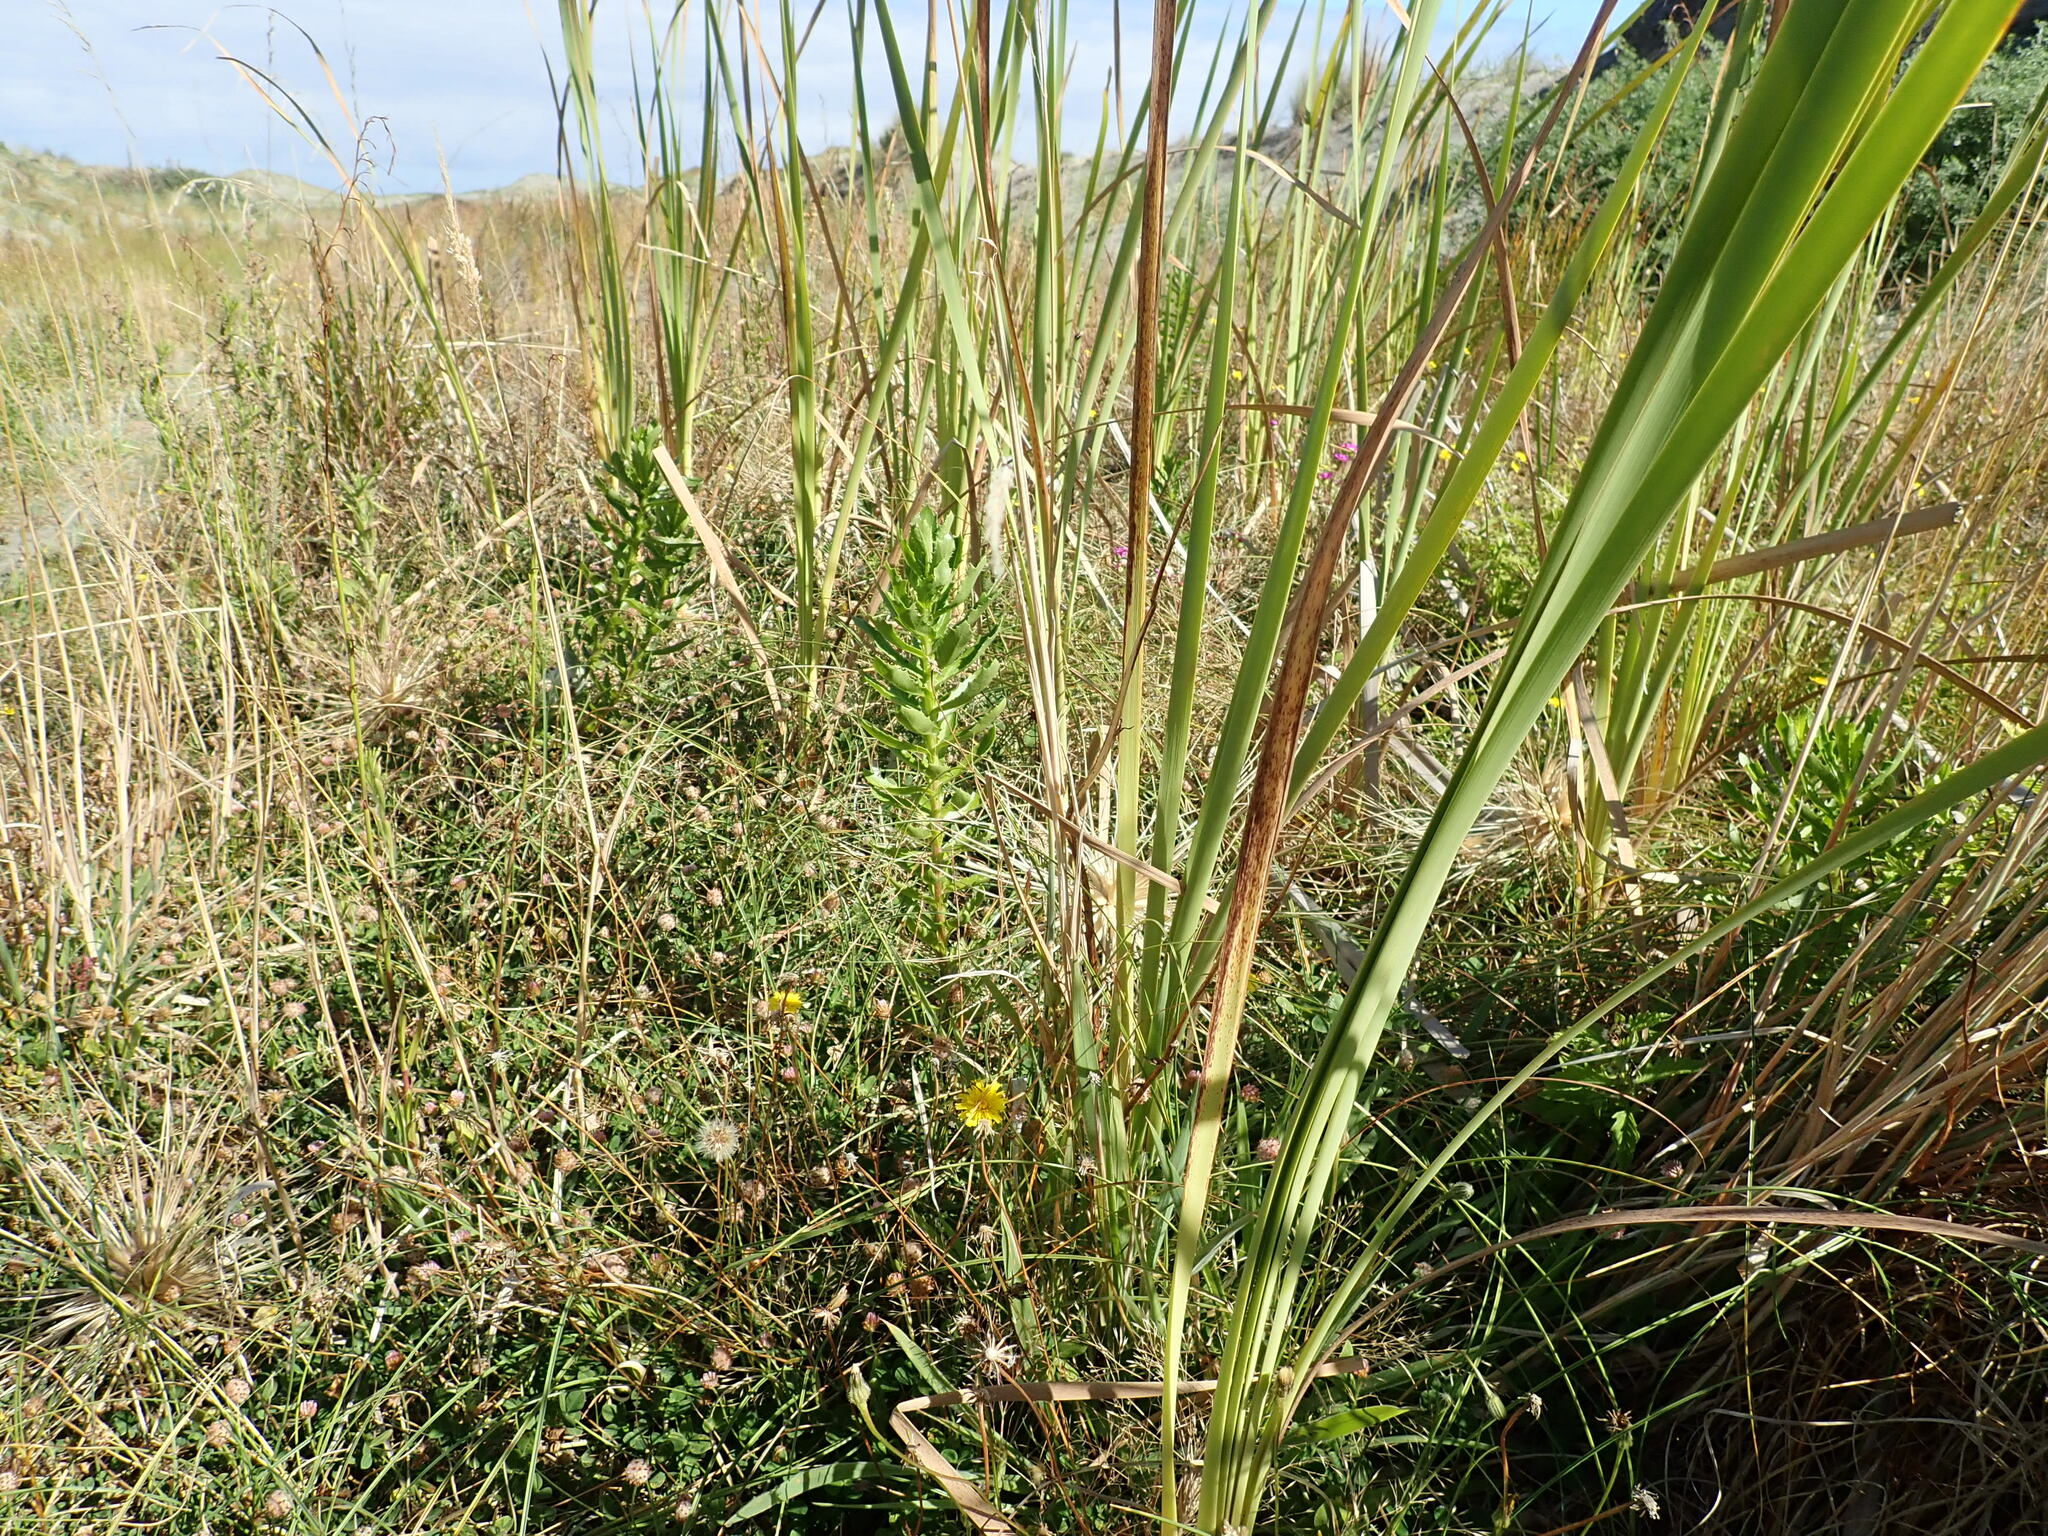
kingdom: Plantae
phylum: Tracheophyta
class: Magnoliopsida
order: Asterales
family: Asteraceae
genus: Senecio
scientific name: Senecio glastifolius
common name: Woad-leaved ragwort
